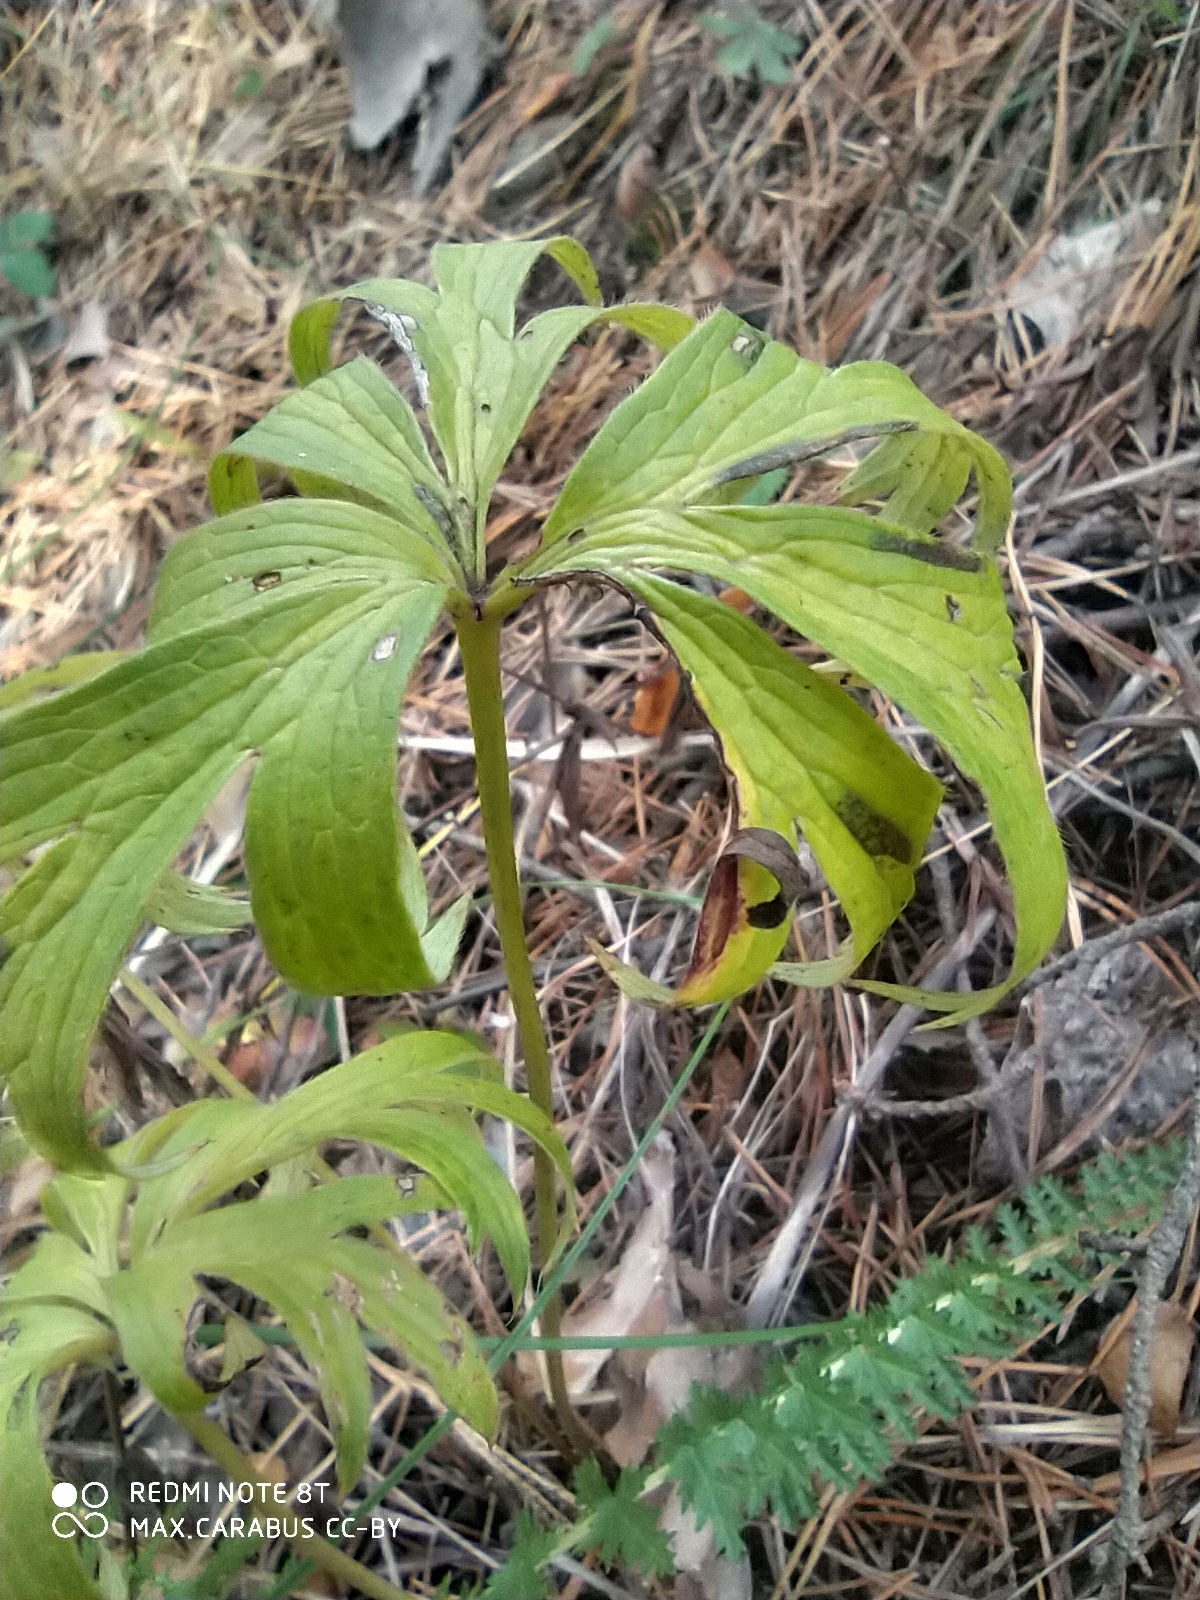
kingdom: Plantae
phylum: Tracheophyta
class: Magnoliopsida
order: Ranunculales
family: Ranunculaceae
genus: Pulsatilla
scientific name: Pulsatilla patens
